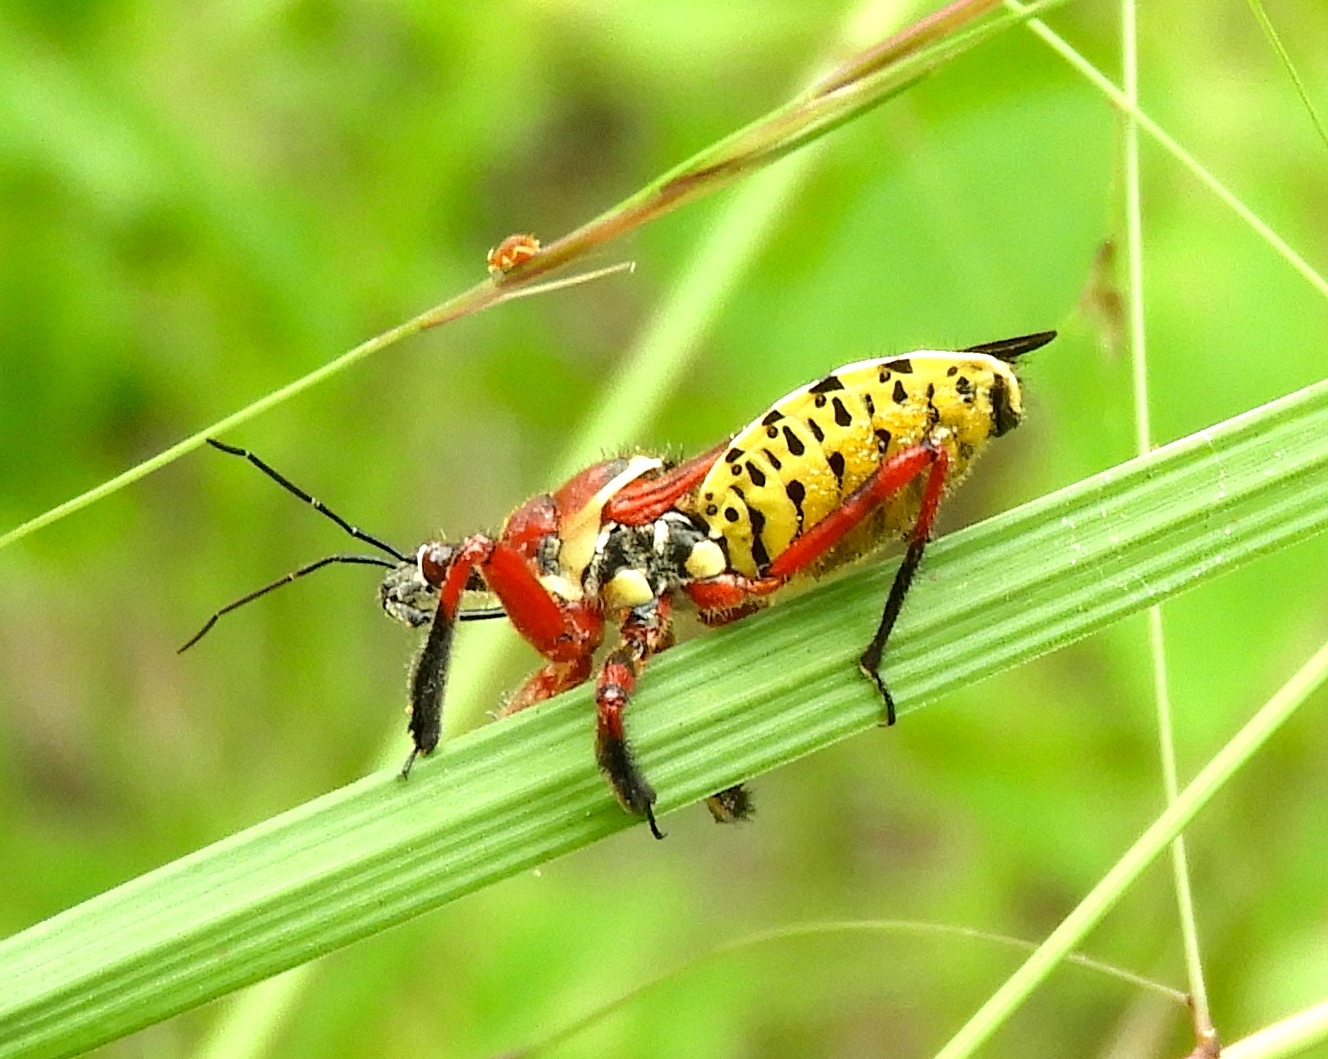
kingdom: Animalia
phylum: Arthropoda
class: Insecta
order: Hemiptera
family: Reduviidae
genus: Apiomerus
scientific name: Apiomerus flaviventris
